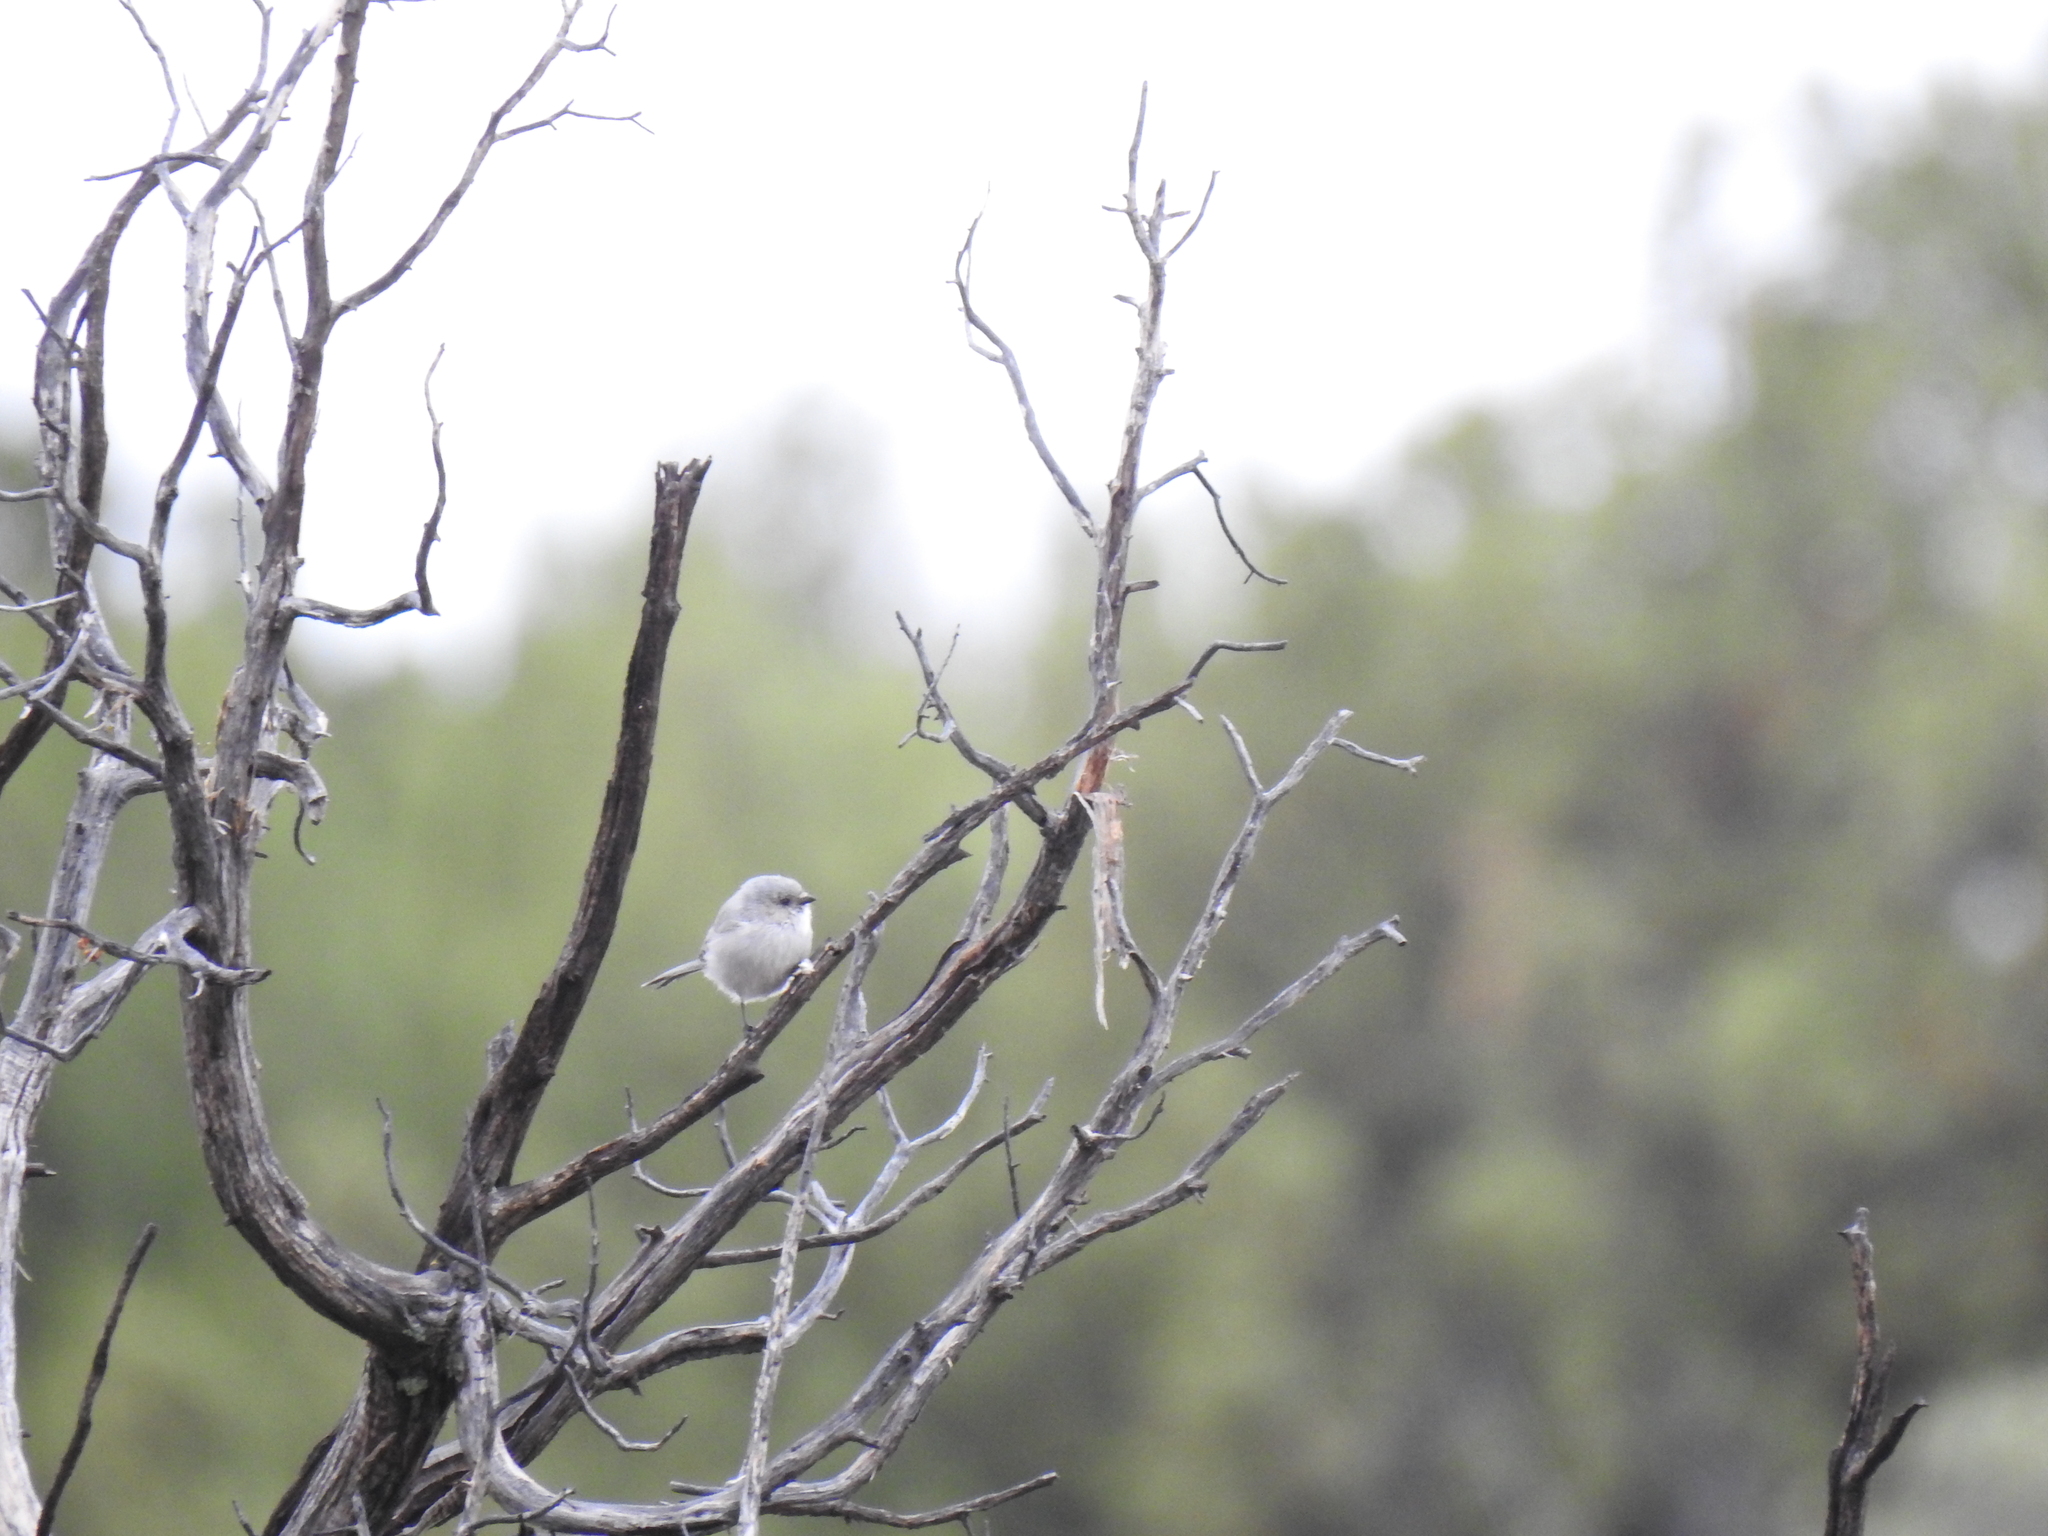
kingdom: Animalia
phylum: Chordata
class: Aves
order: Passeriformes
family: Aegithalidae
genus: Psaltriparus
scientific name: Psaltriparus minimus
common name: American bushtit
